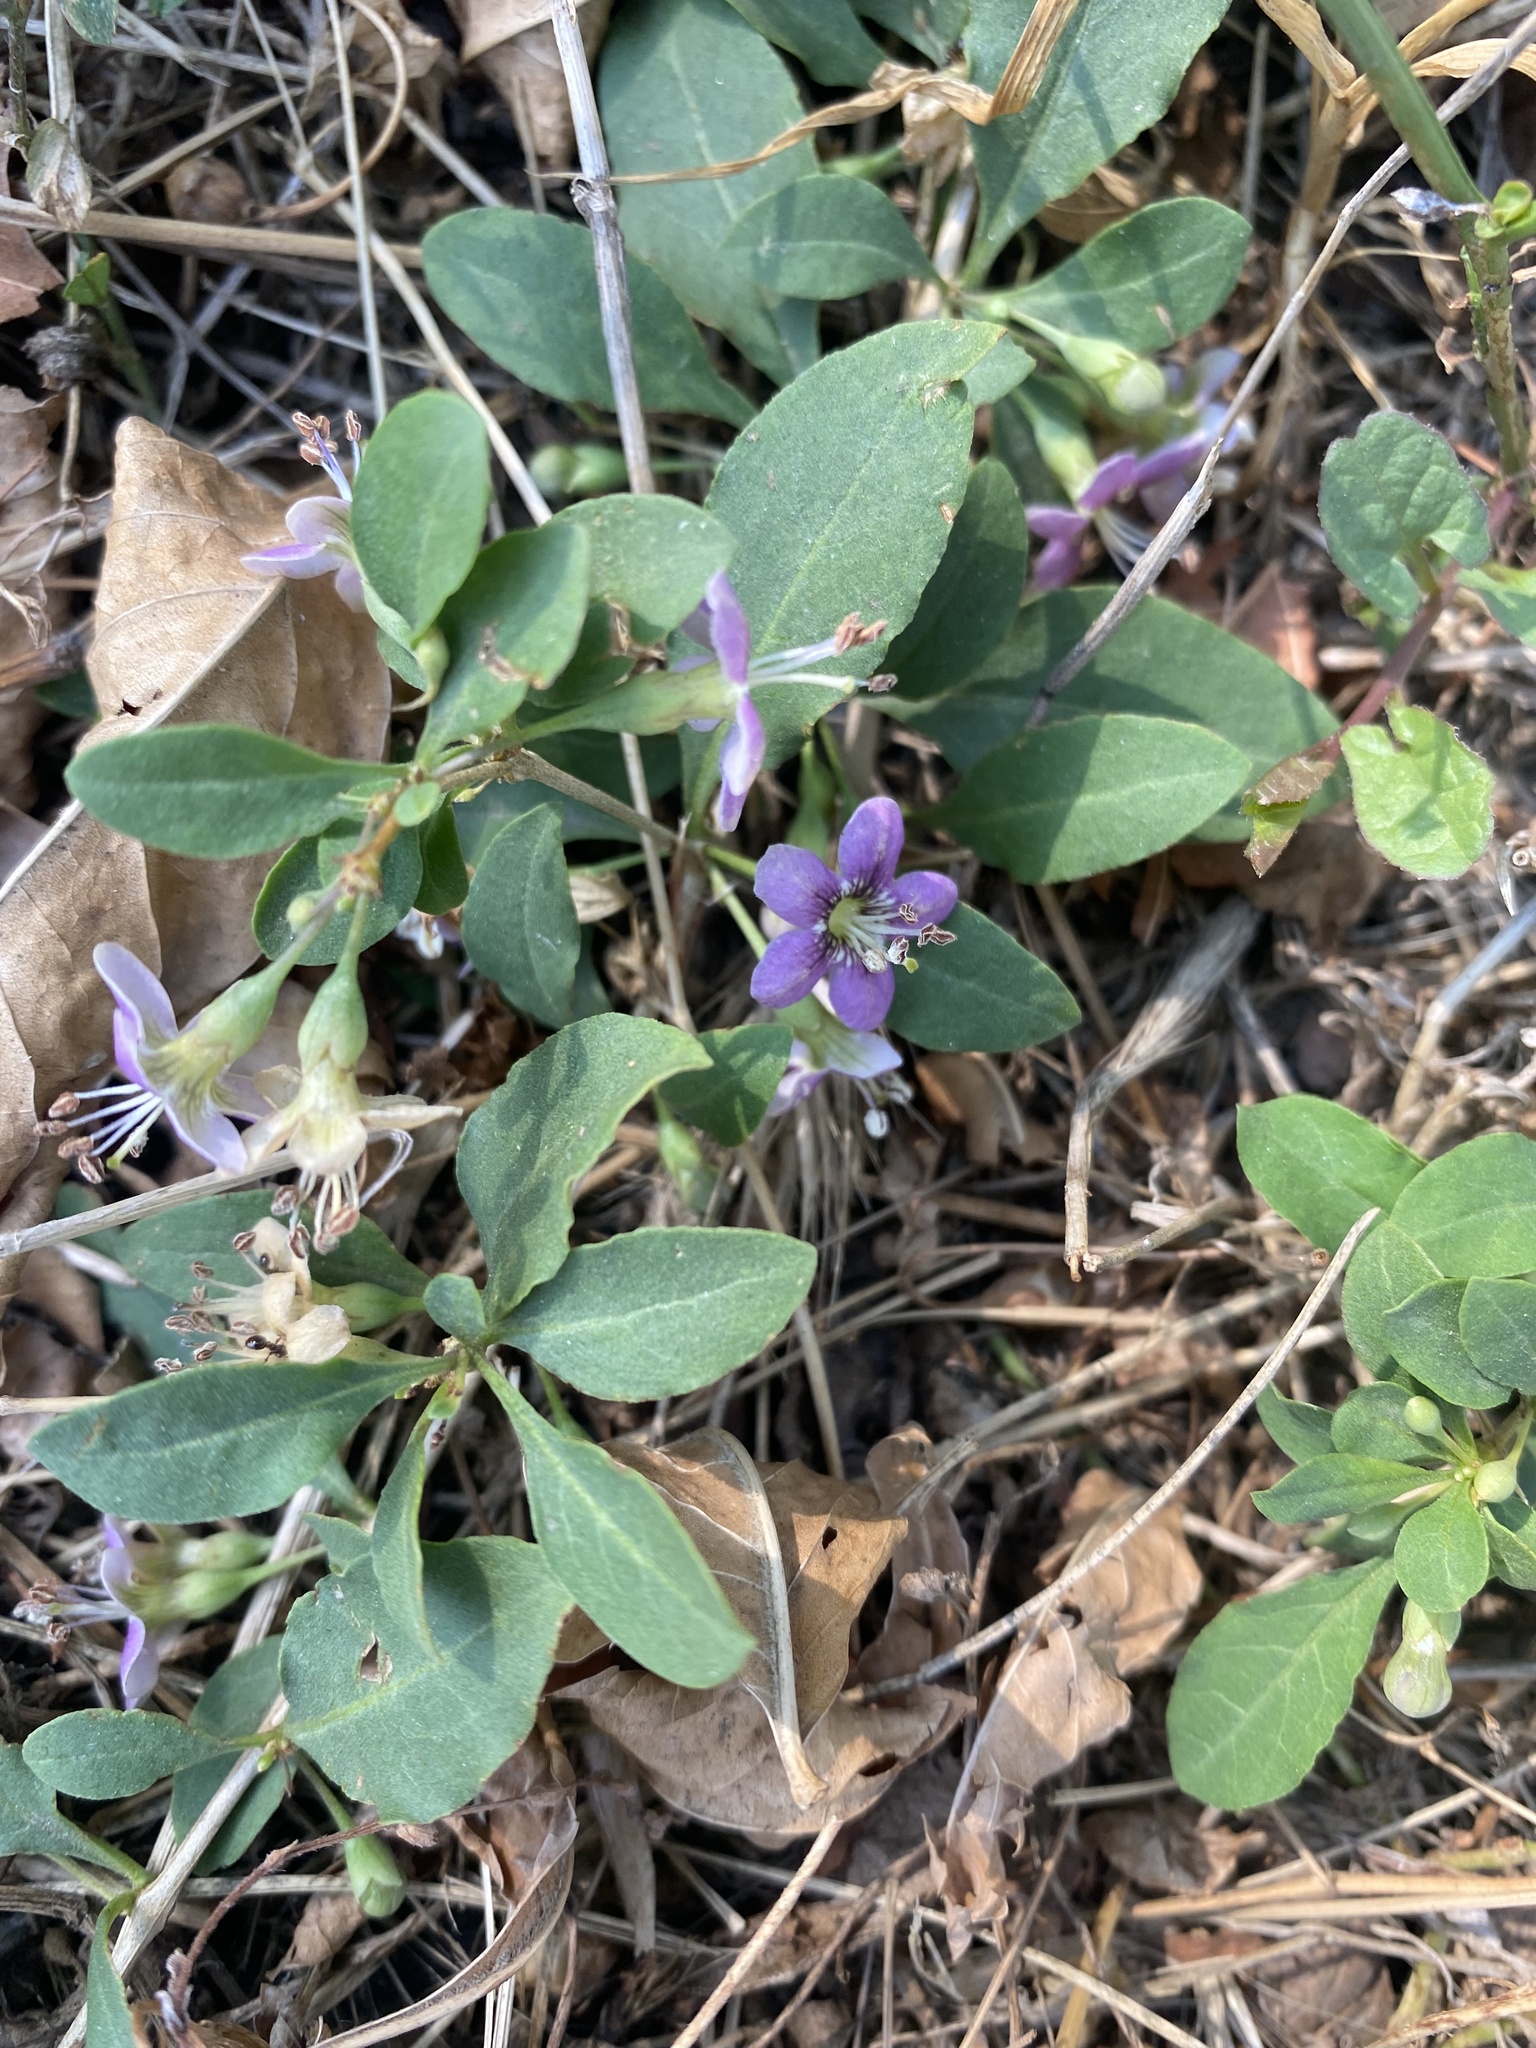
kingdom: Plantae
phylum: Tracheophyta
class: Magnoliopsida
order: Solanales
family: Solanaceae
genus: Lycium
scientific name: Lycium barbarum
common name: Duke of argyll's teaplant
